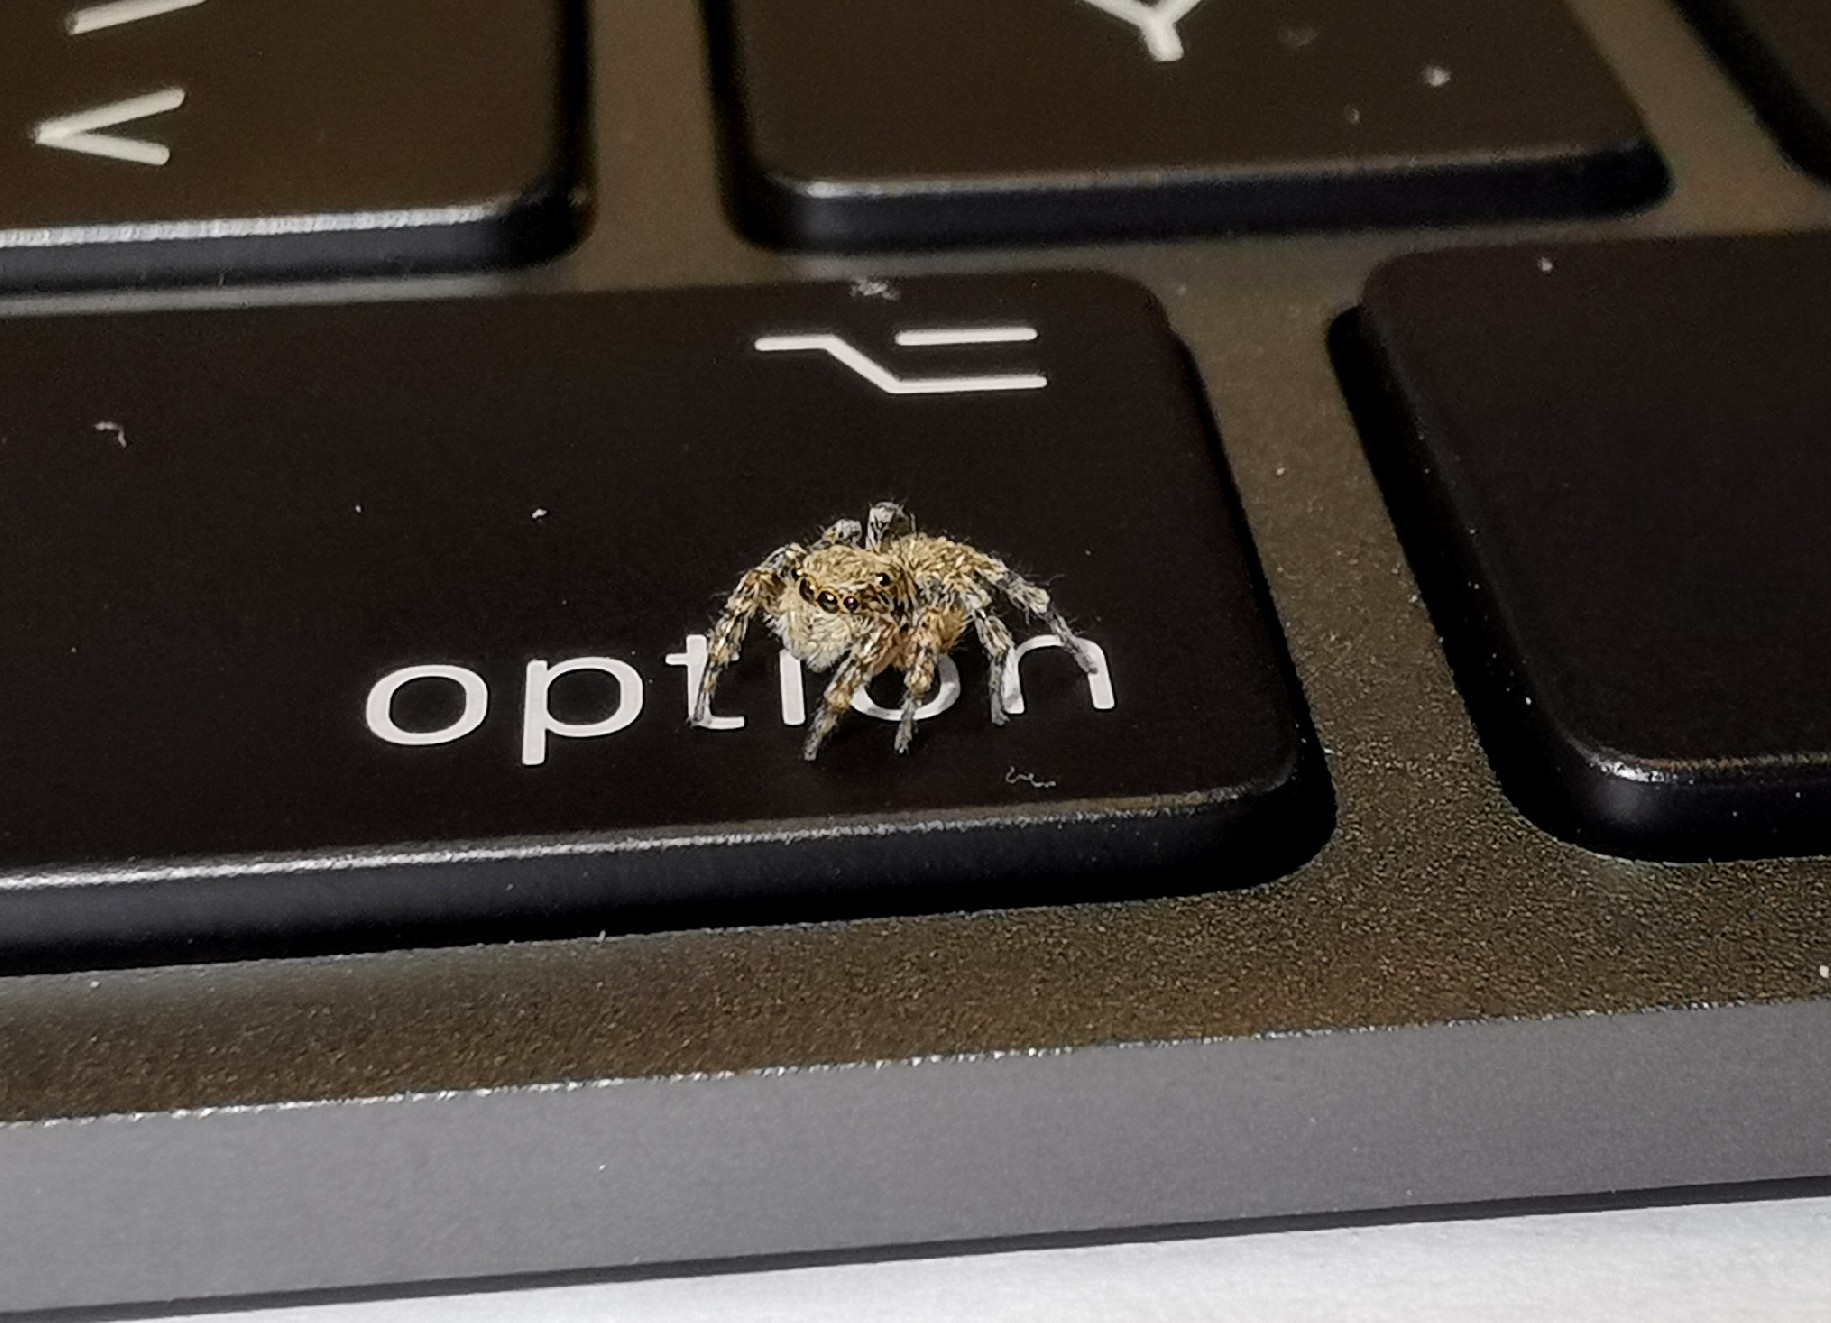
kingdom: Animalia
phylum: Arthropoda
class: Arachnida
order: Araneae
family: Salticidae
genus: Pseudeuophrys
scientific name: Pseudeuophrys lanigera
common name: Jumping spider
